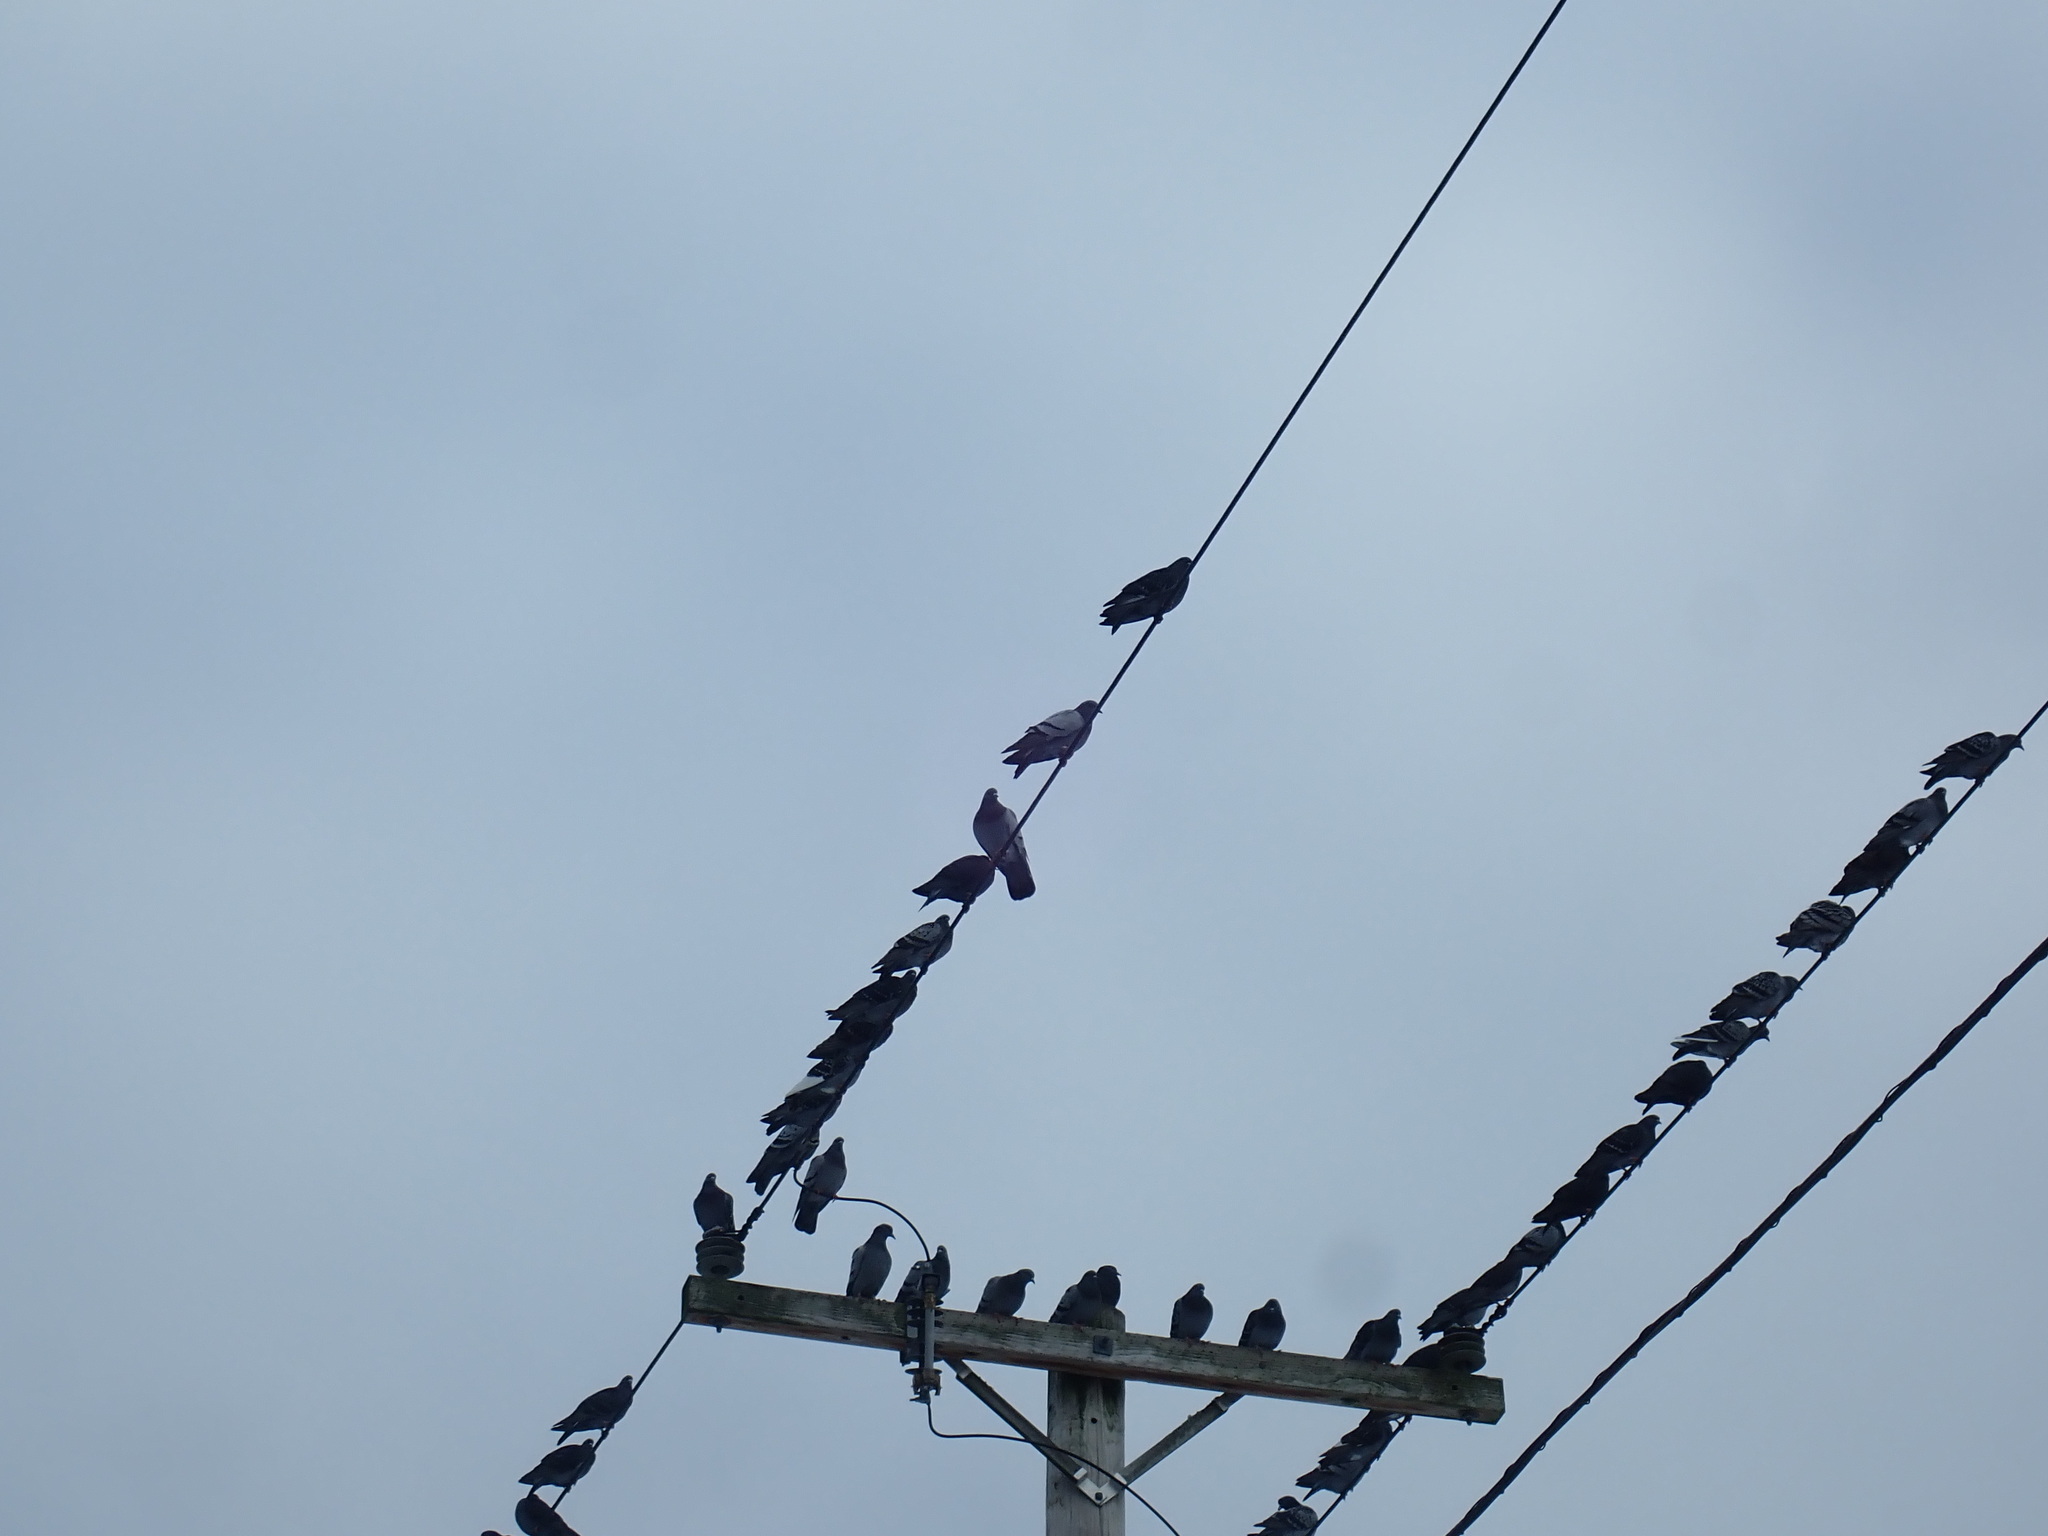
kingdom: Animalia
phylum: Chordata
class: Aves
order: Columbiformes
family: Columbidae
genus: Columba
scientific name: Columba livia
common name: Rock pigeon
